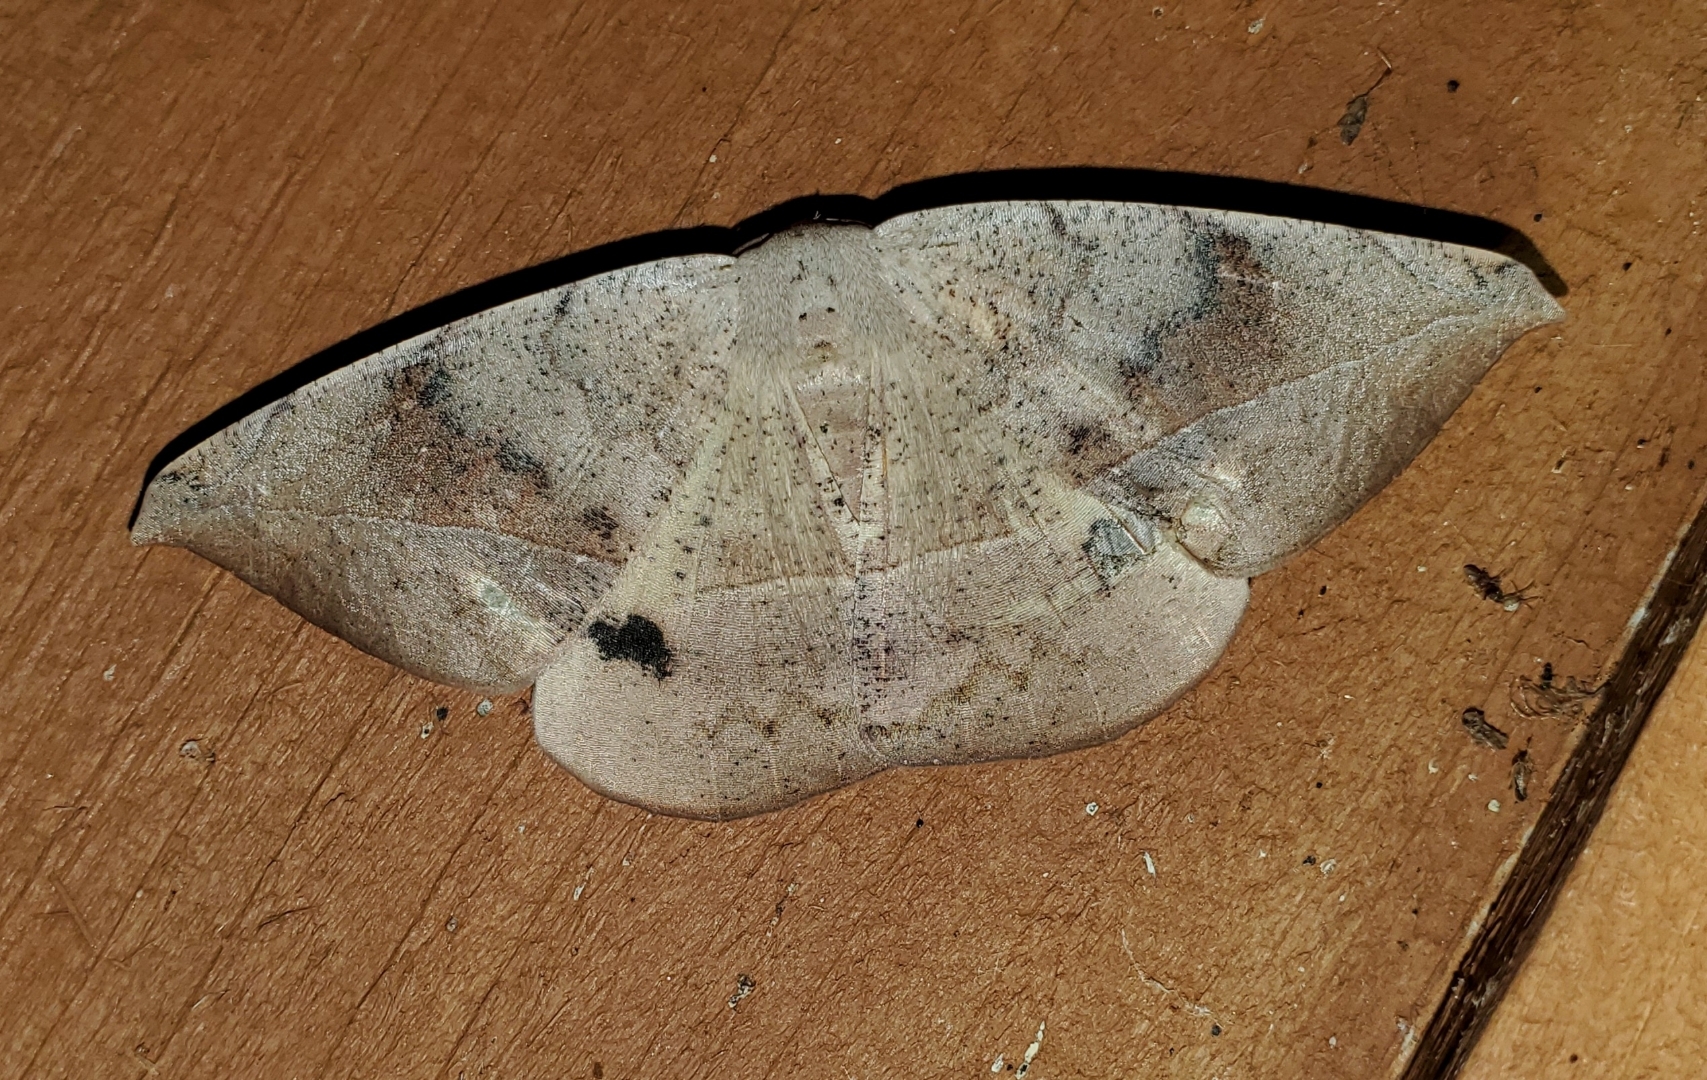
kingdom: Animalia
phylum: Arthropoda
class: Insecta
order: Lepidoptera
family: Geometridae
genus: Oxydia
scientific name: Oxydia vesulia
